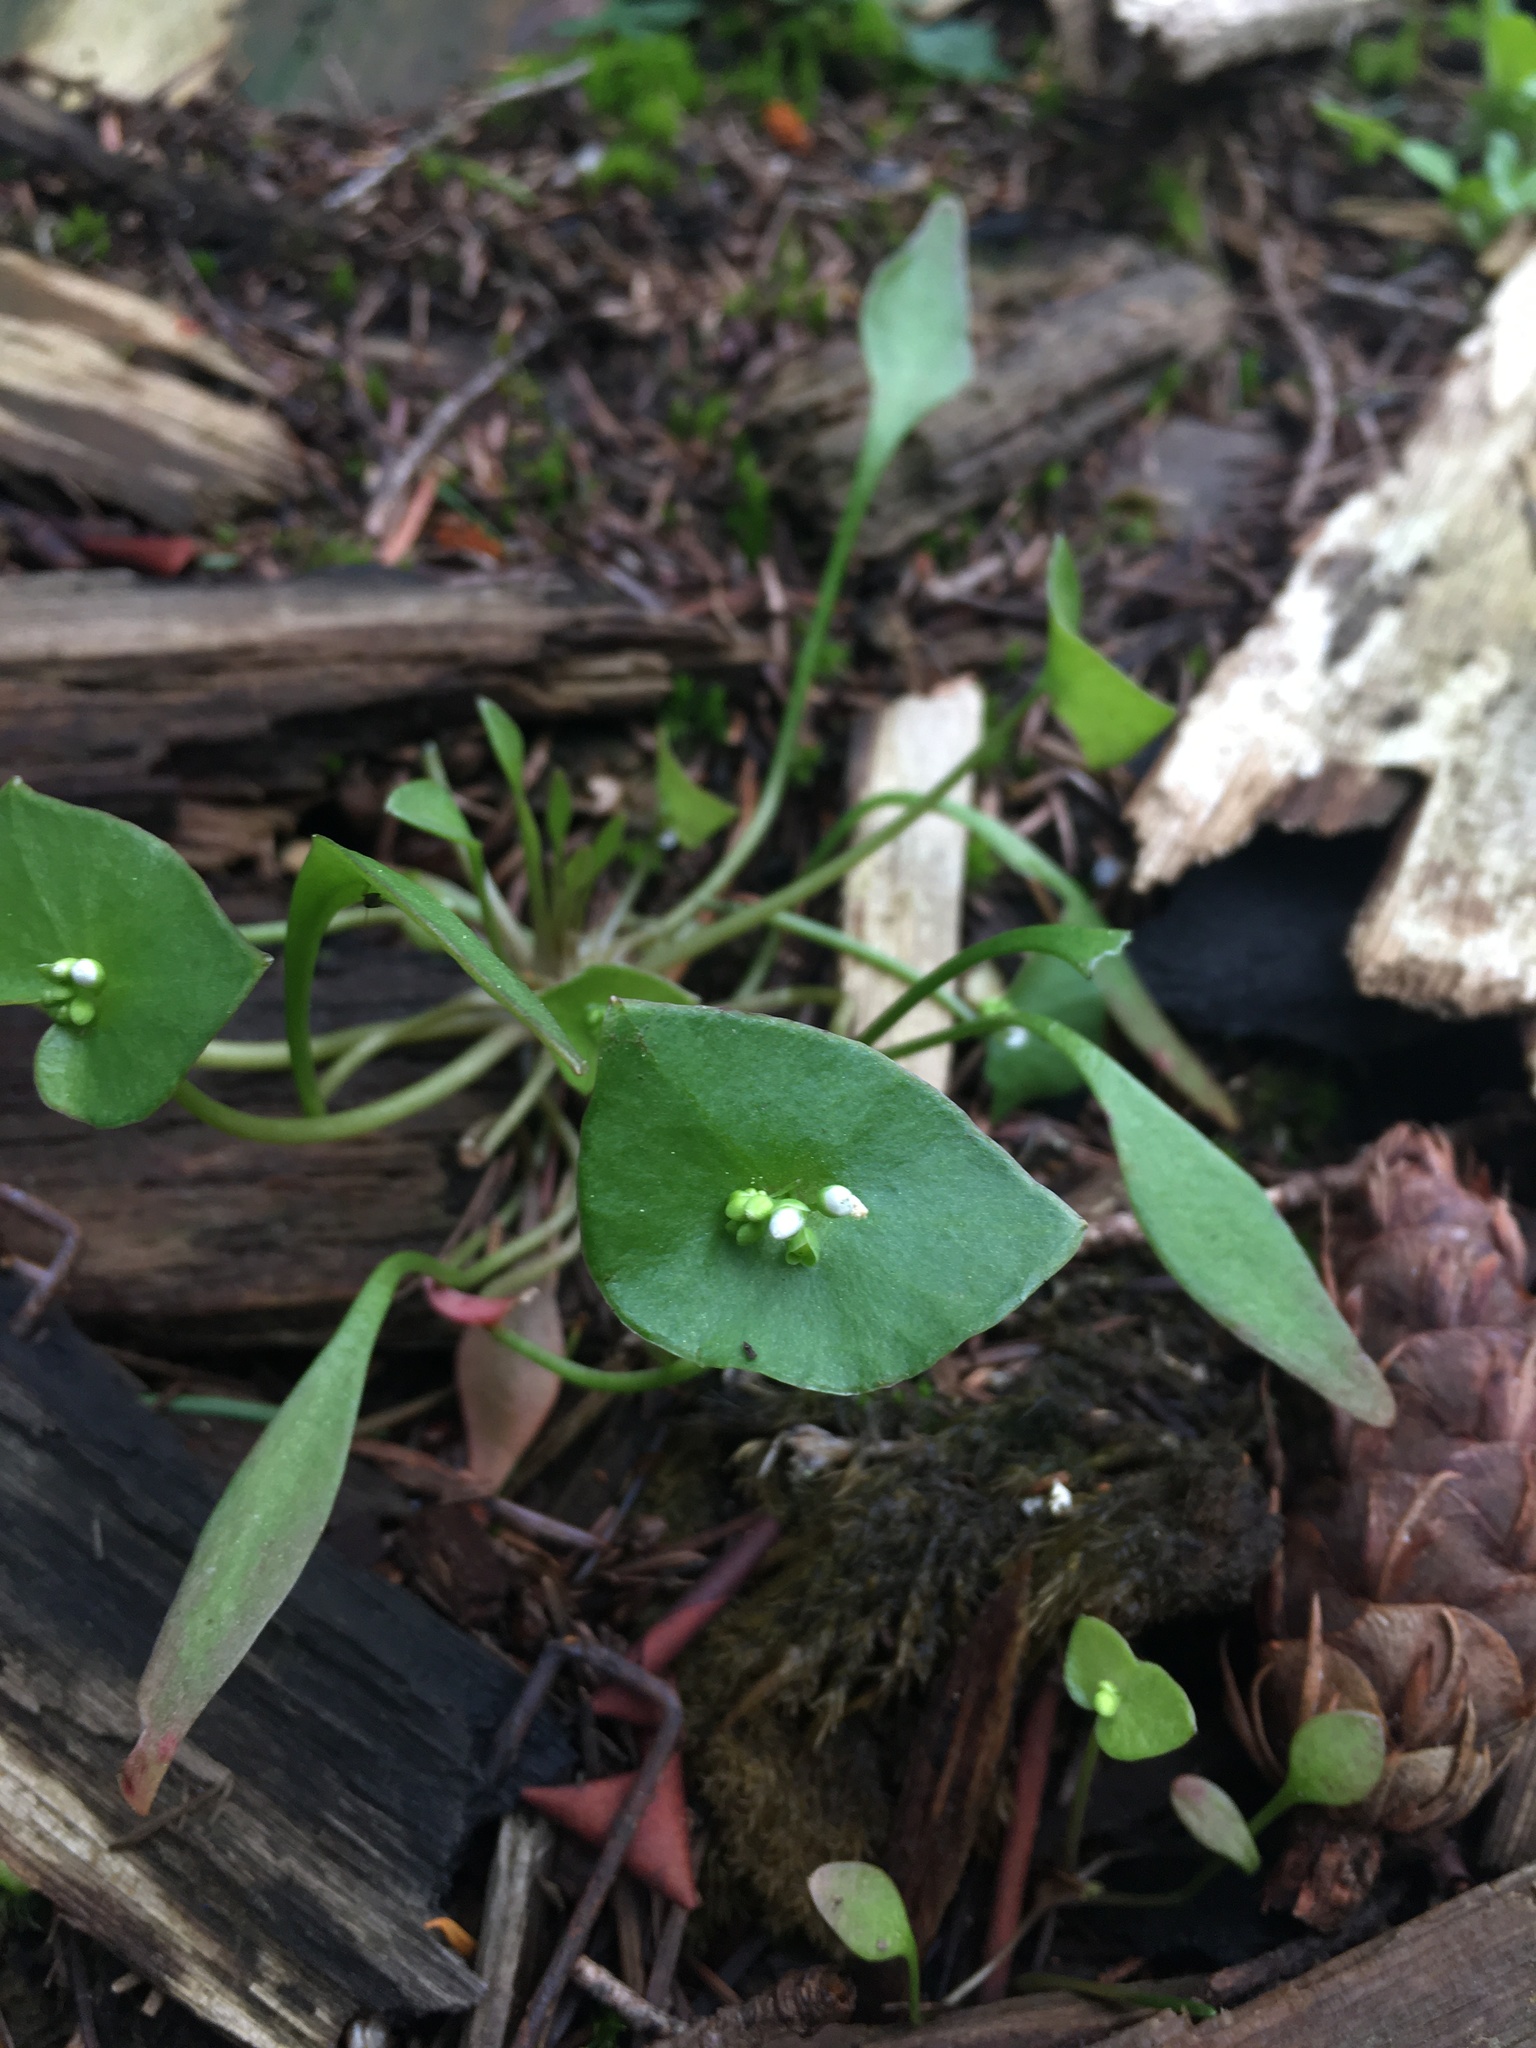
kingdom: Plantae
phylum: Tracheophyta
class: Magnoliopsida
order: Caryophyllales
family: Montiaceae
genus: Claytonia
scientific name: Claytonia perfoliata
